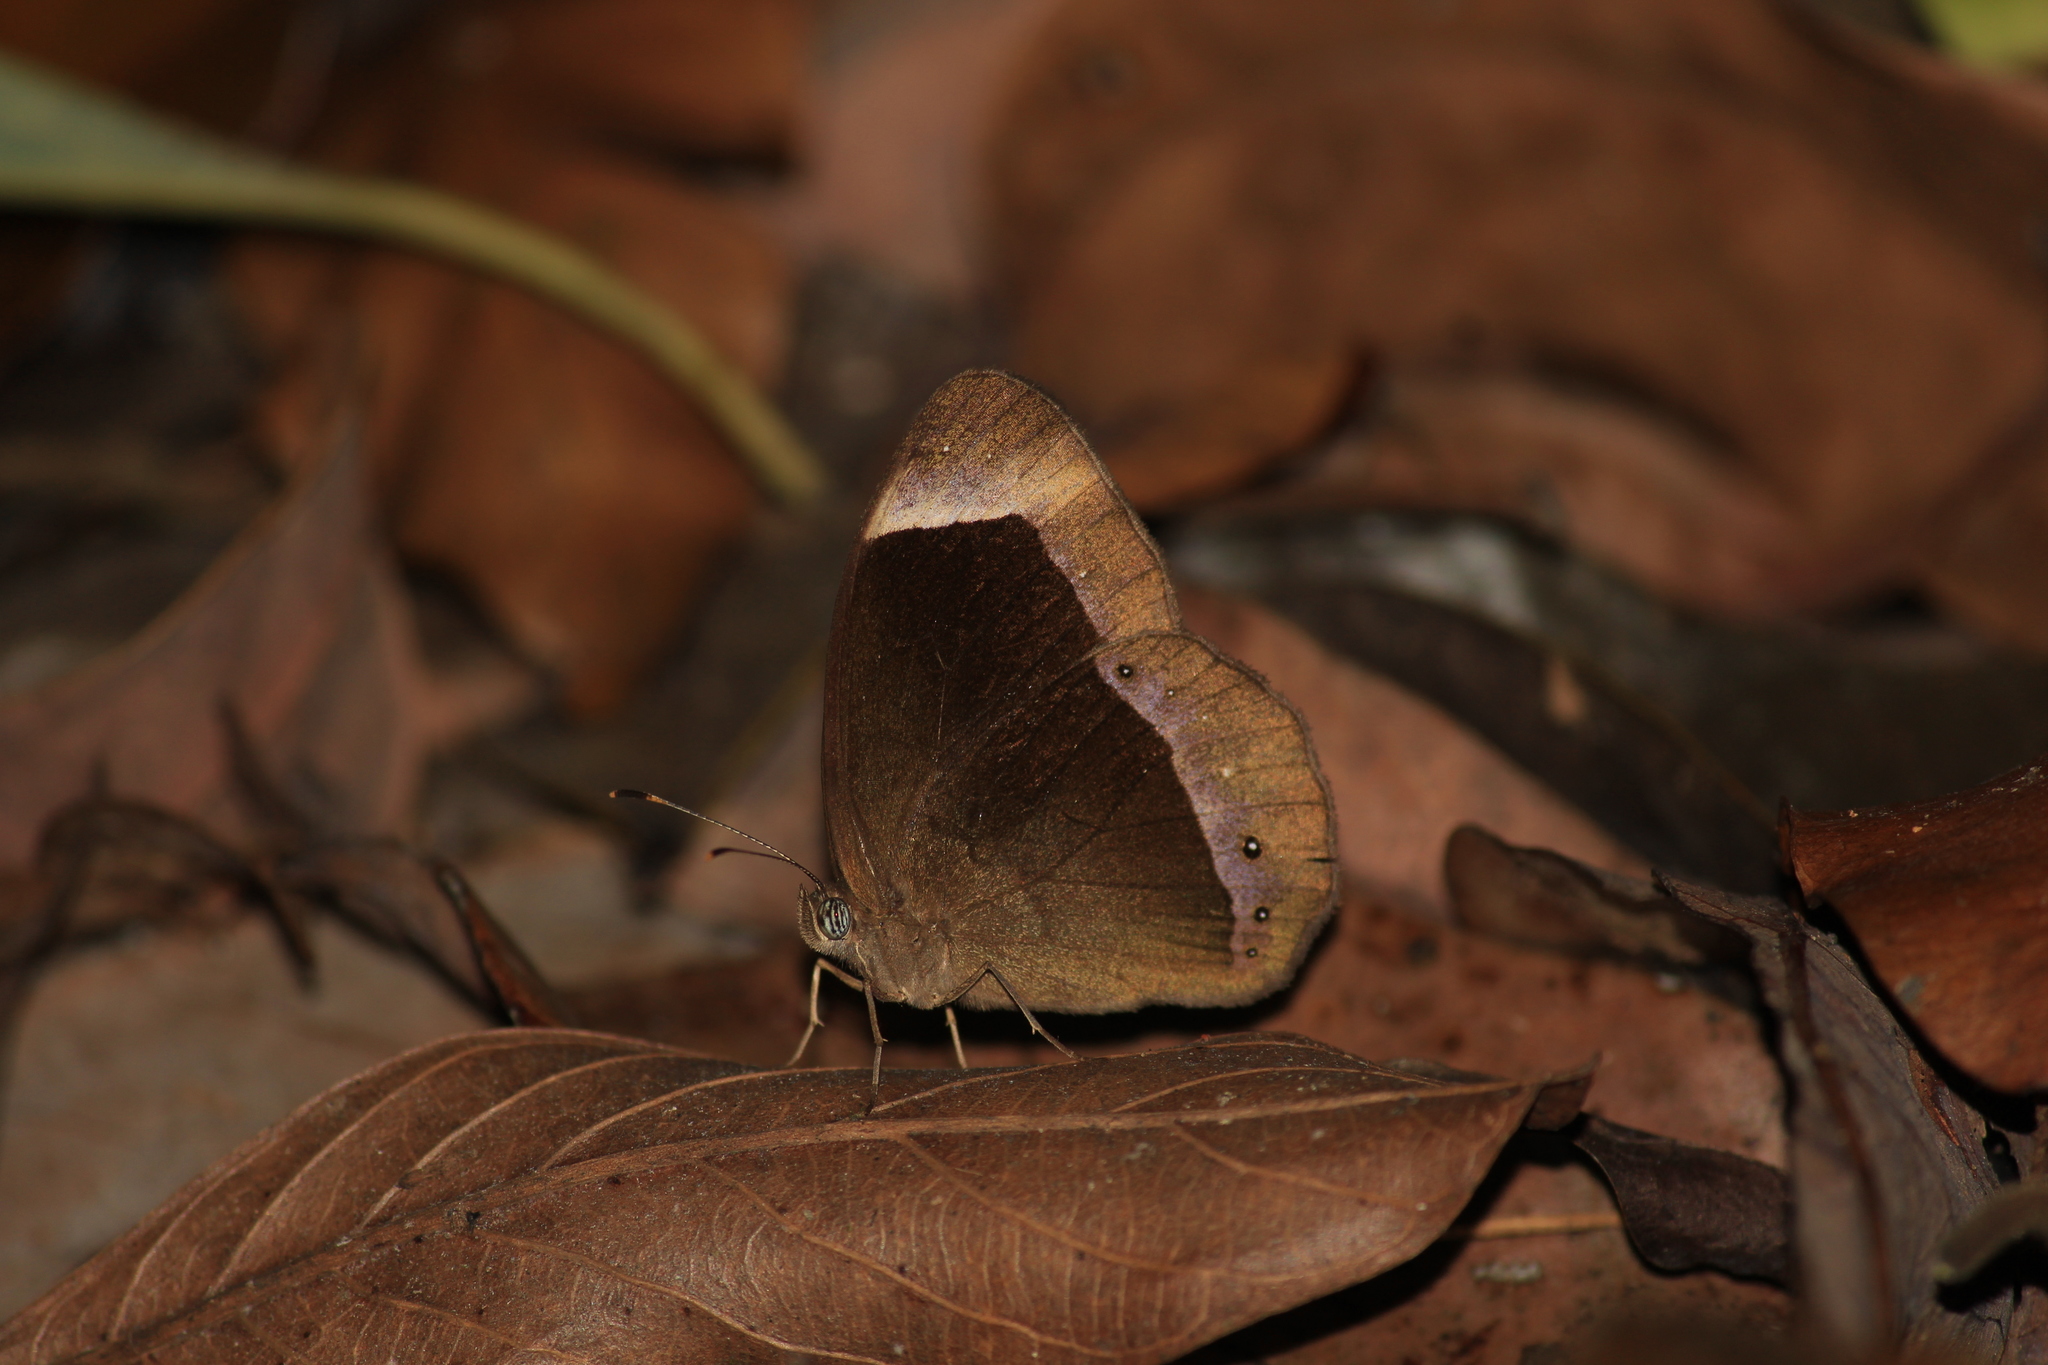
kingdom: Animalia
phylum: Arthropoda
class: Insecta
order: Lepidoptera
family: Nymphalidae
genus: Mycalesis
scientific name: Mycalesis anaxias
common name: White-bar bushbrown
